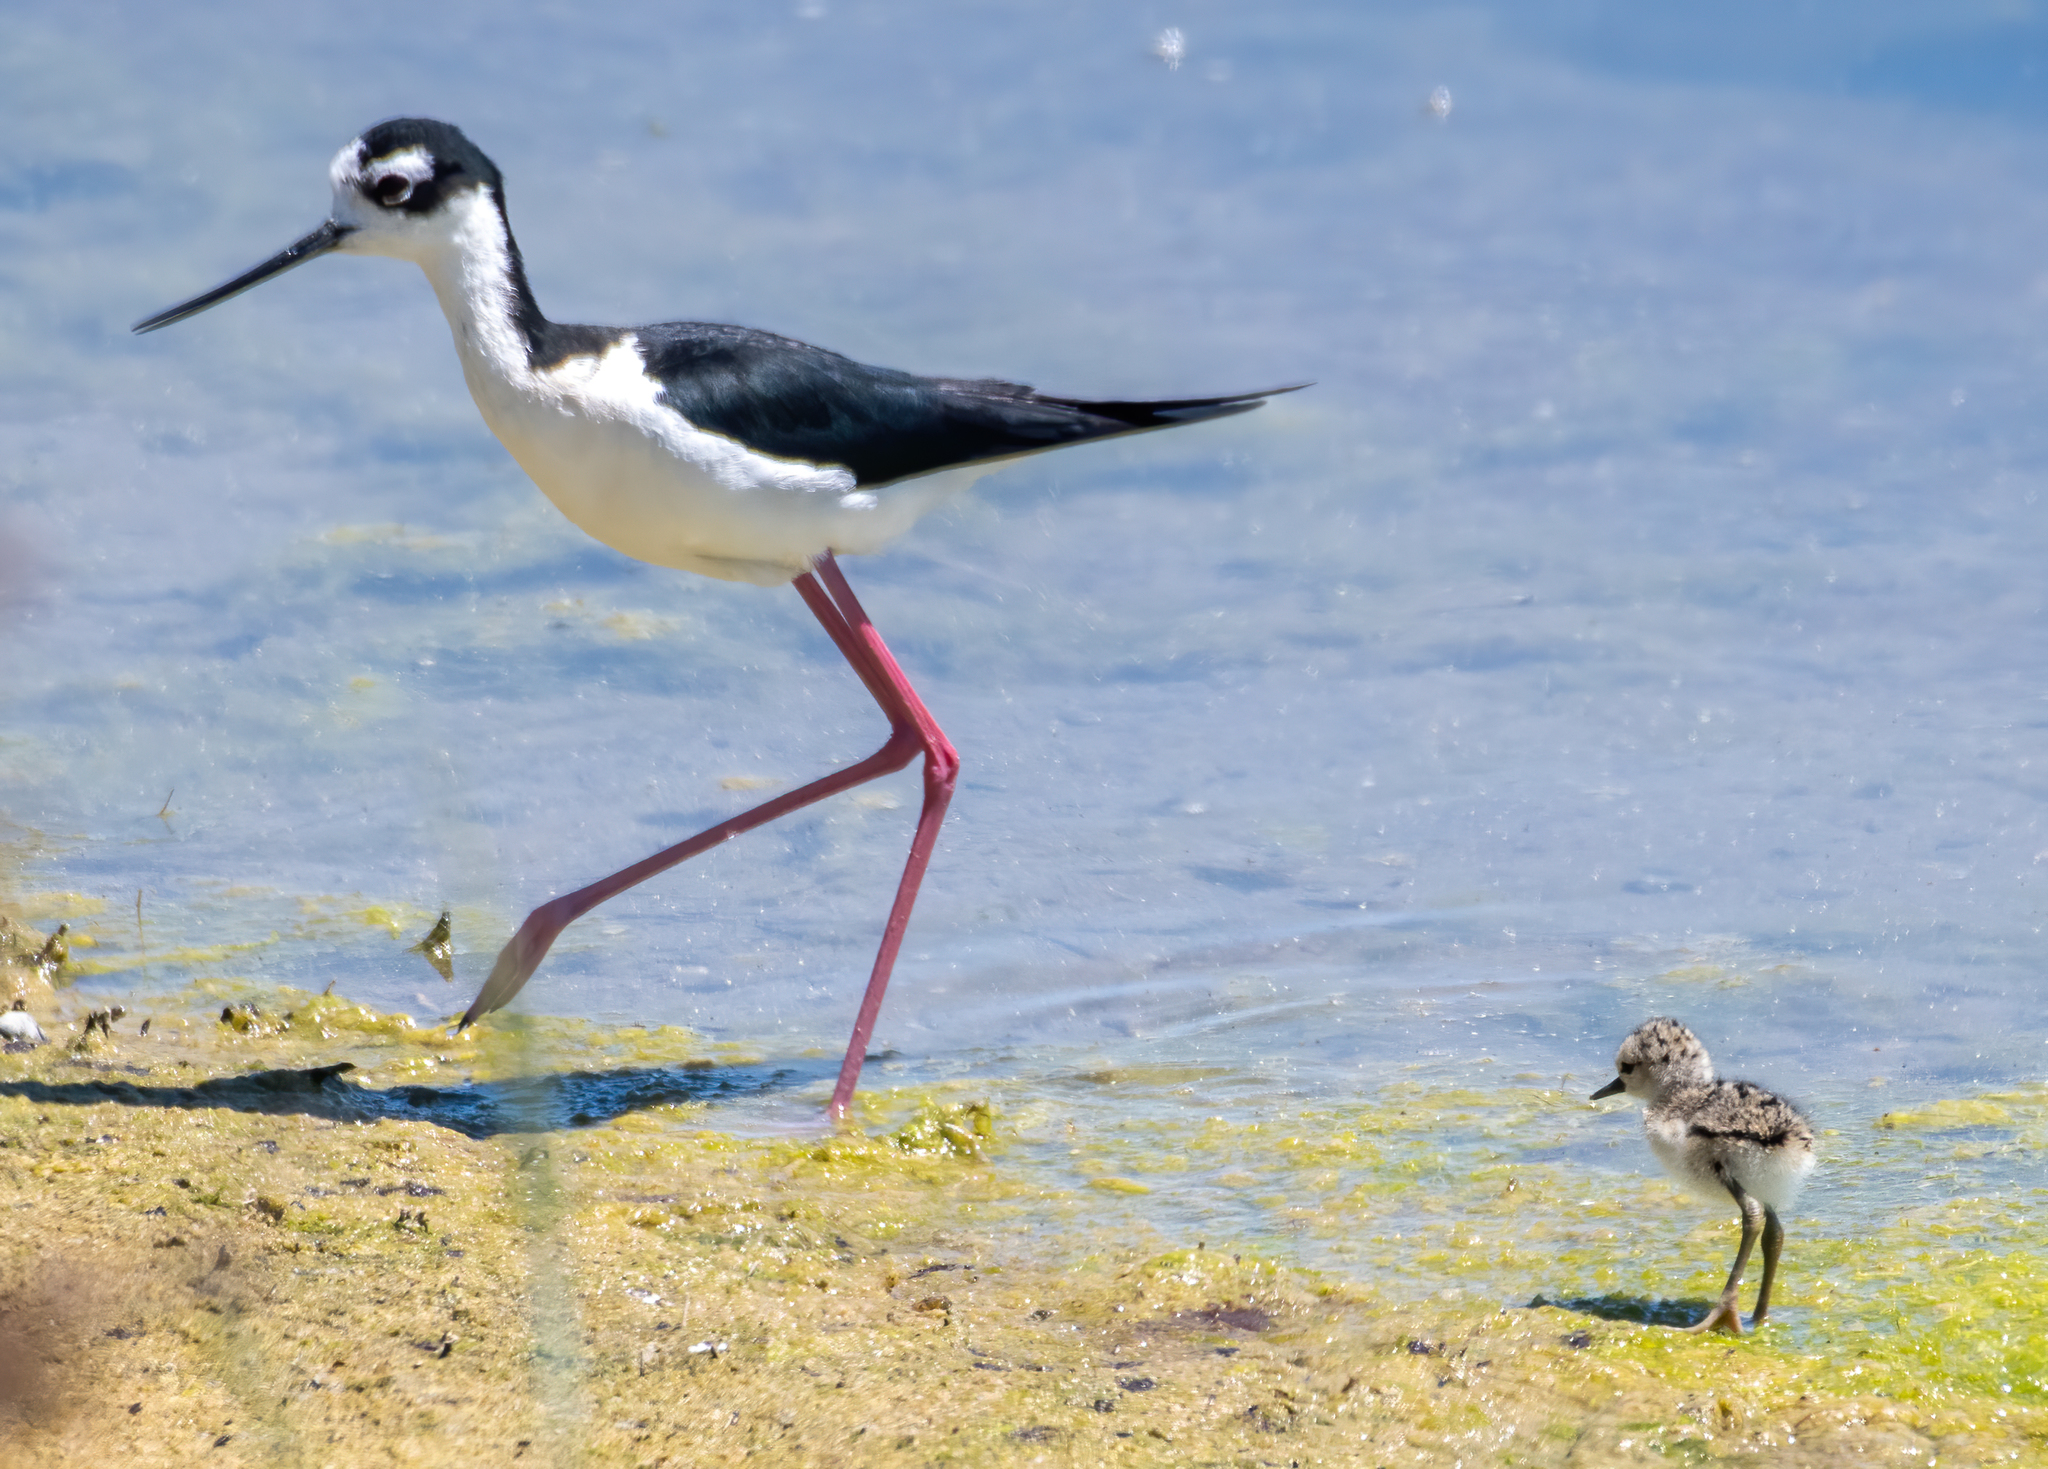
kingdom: Animalia
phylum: Chordata
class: Aves
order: Charadriiformes
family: Recurvirostridae
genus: Himantopus
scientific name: Himantopus mexicanus
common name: Black-necked stilt
